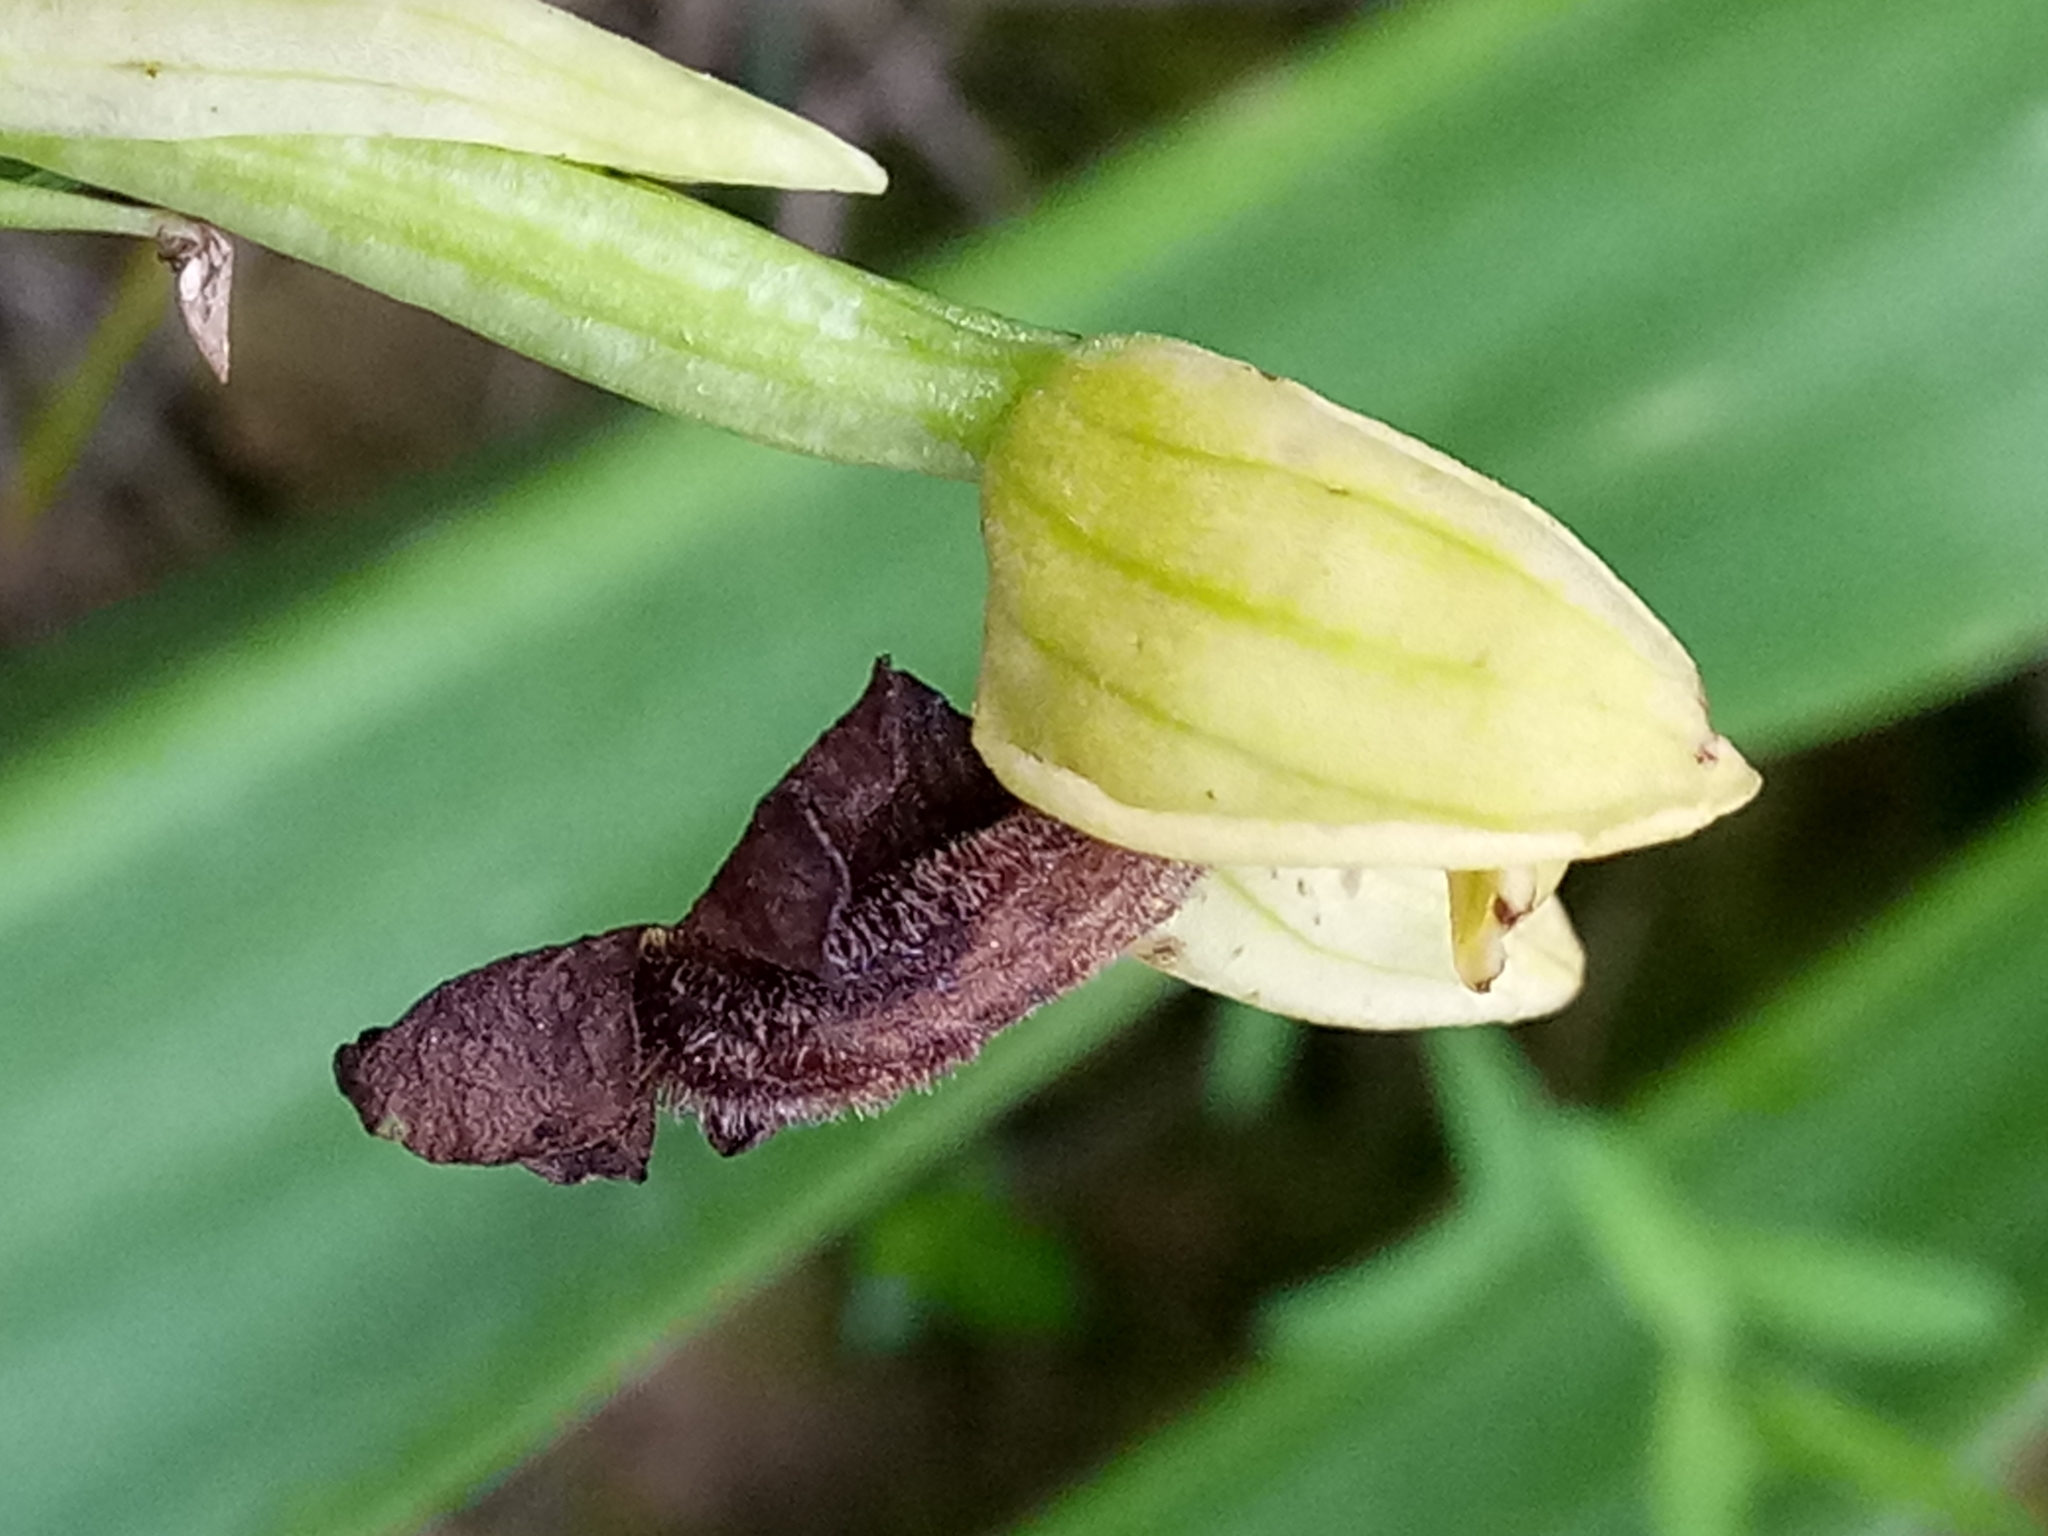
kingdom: Plantae
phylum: Tracheophyta
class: Liliopsida
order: Asparagales
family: Orchidaceae
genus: Ophrys
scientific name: Ophrys fusca
